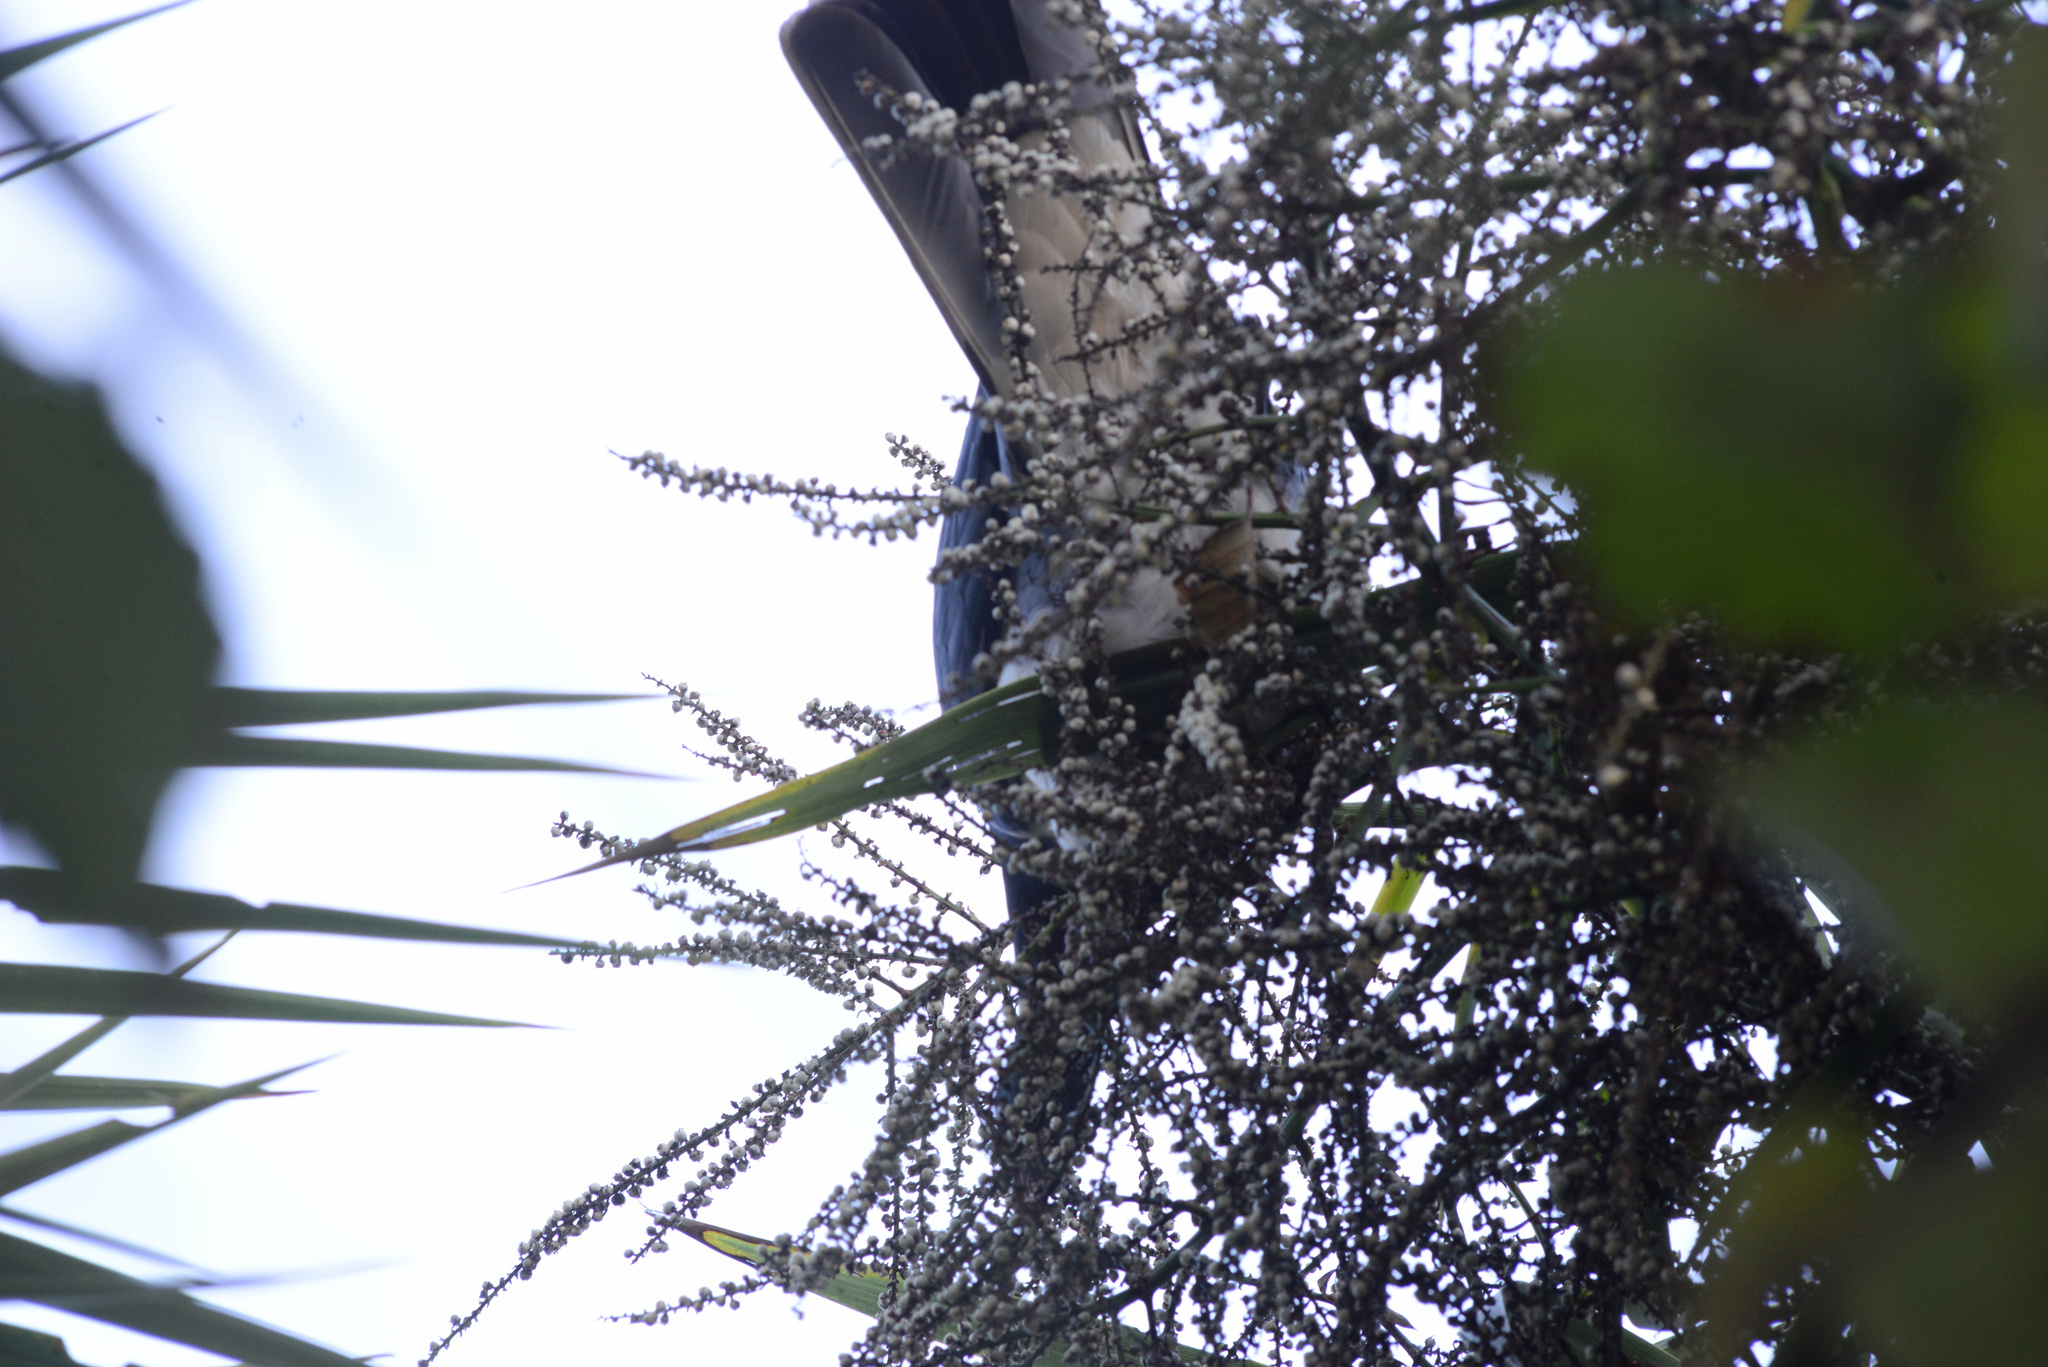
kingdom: Animalia
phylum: Chordata
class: Aves
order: Columbiformes
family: Columbidae
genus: Hemiphaga
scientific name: Hemiphaga novaeseelandiae
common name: New zealand pigeon
